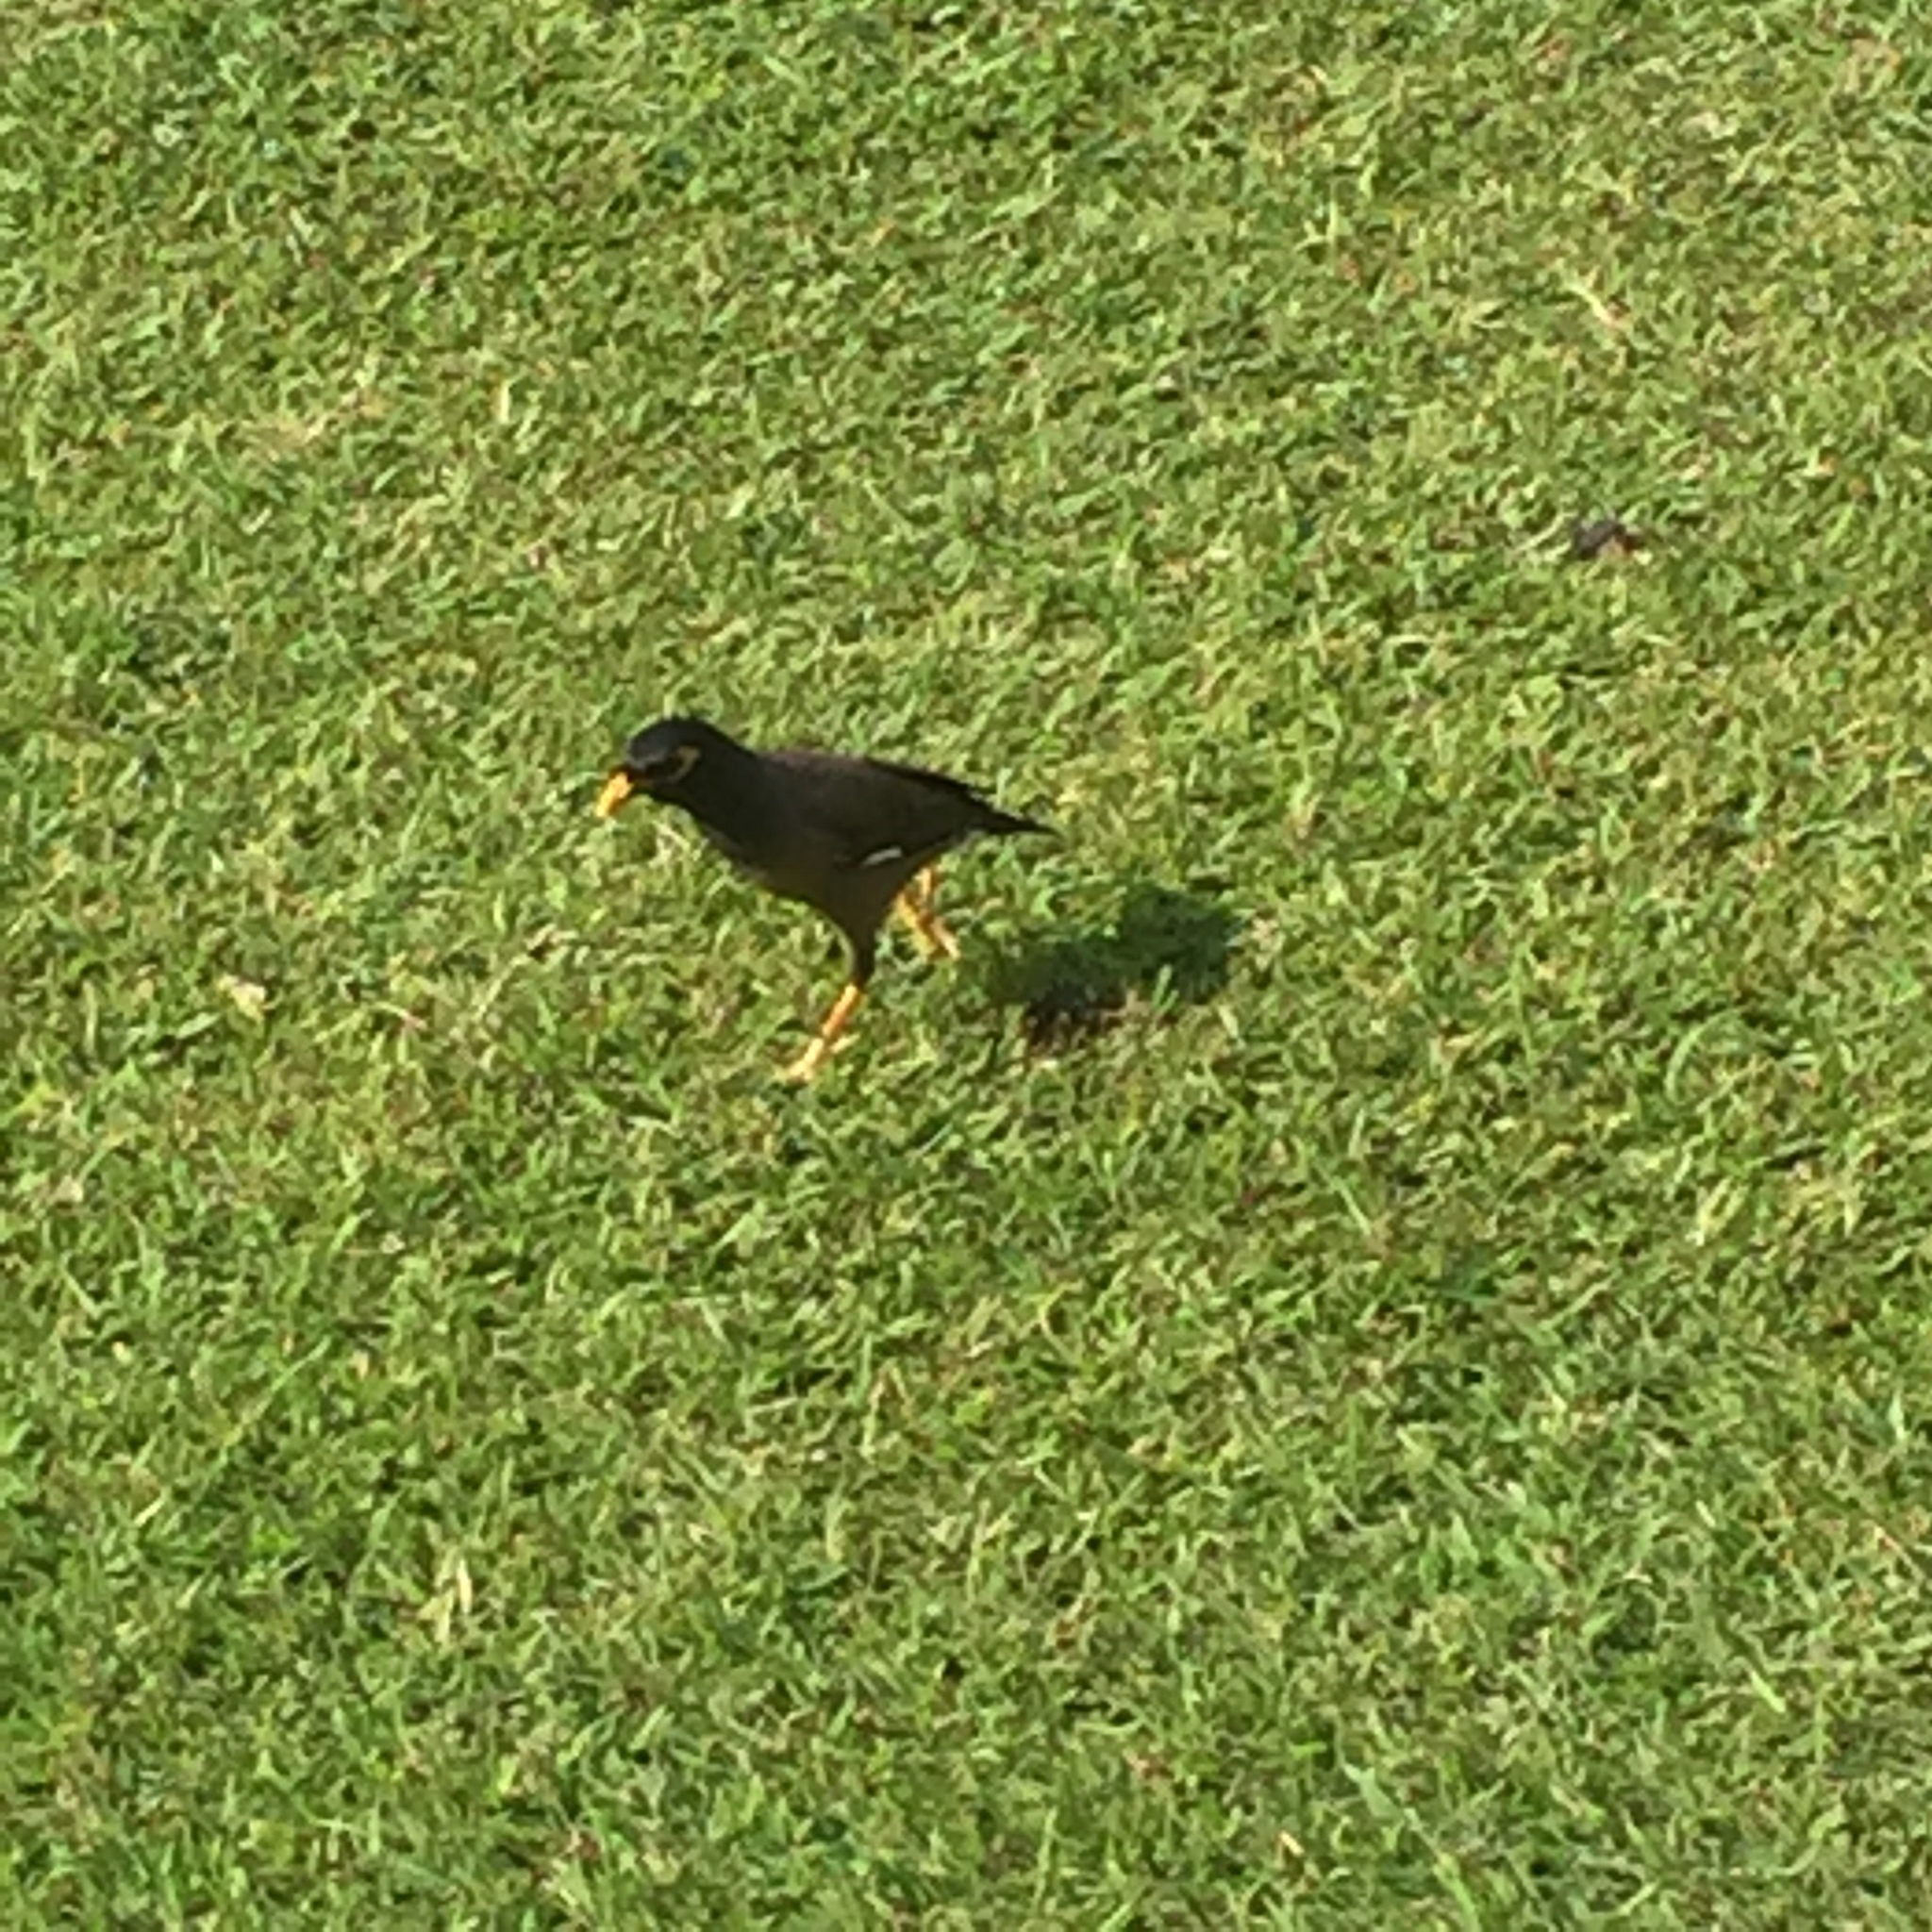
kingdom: Animalia
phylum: Chordata
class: Aves
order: Passeriformes
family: Sturnidae
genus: Acridotheres
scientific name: Acridotheres tristis
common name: Common myna
